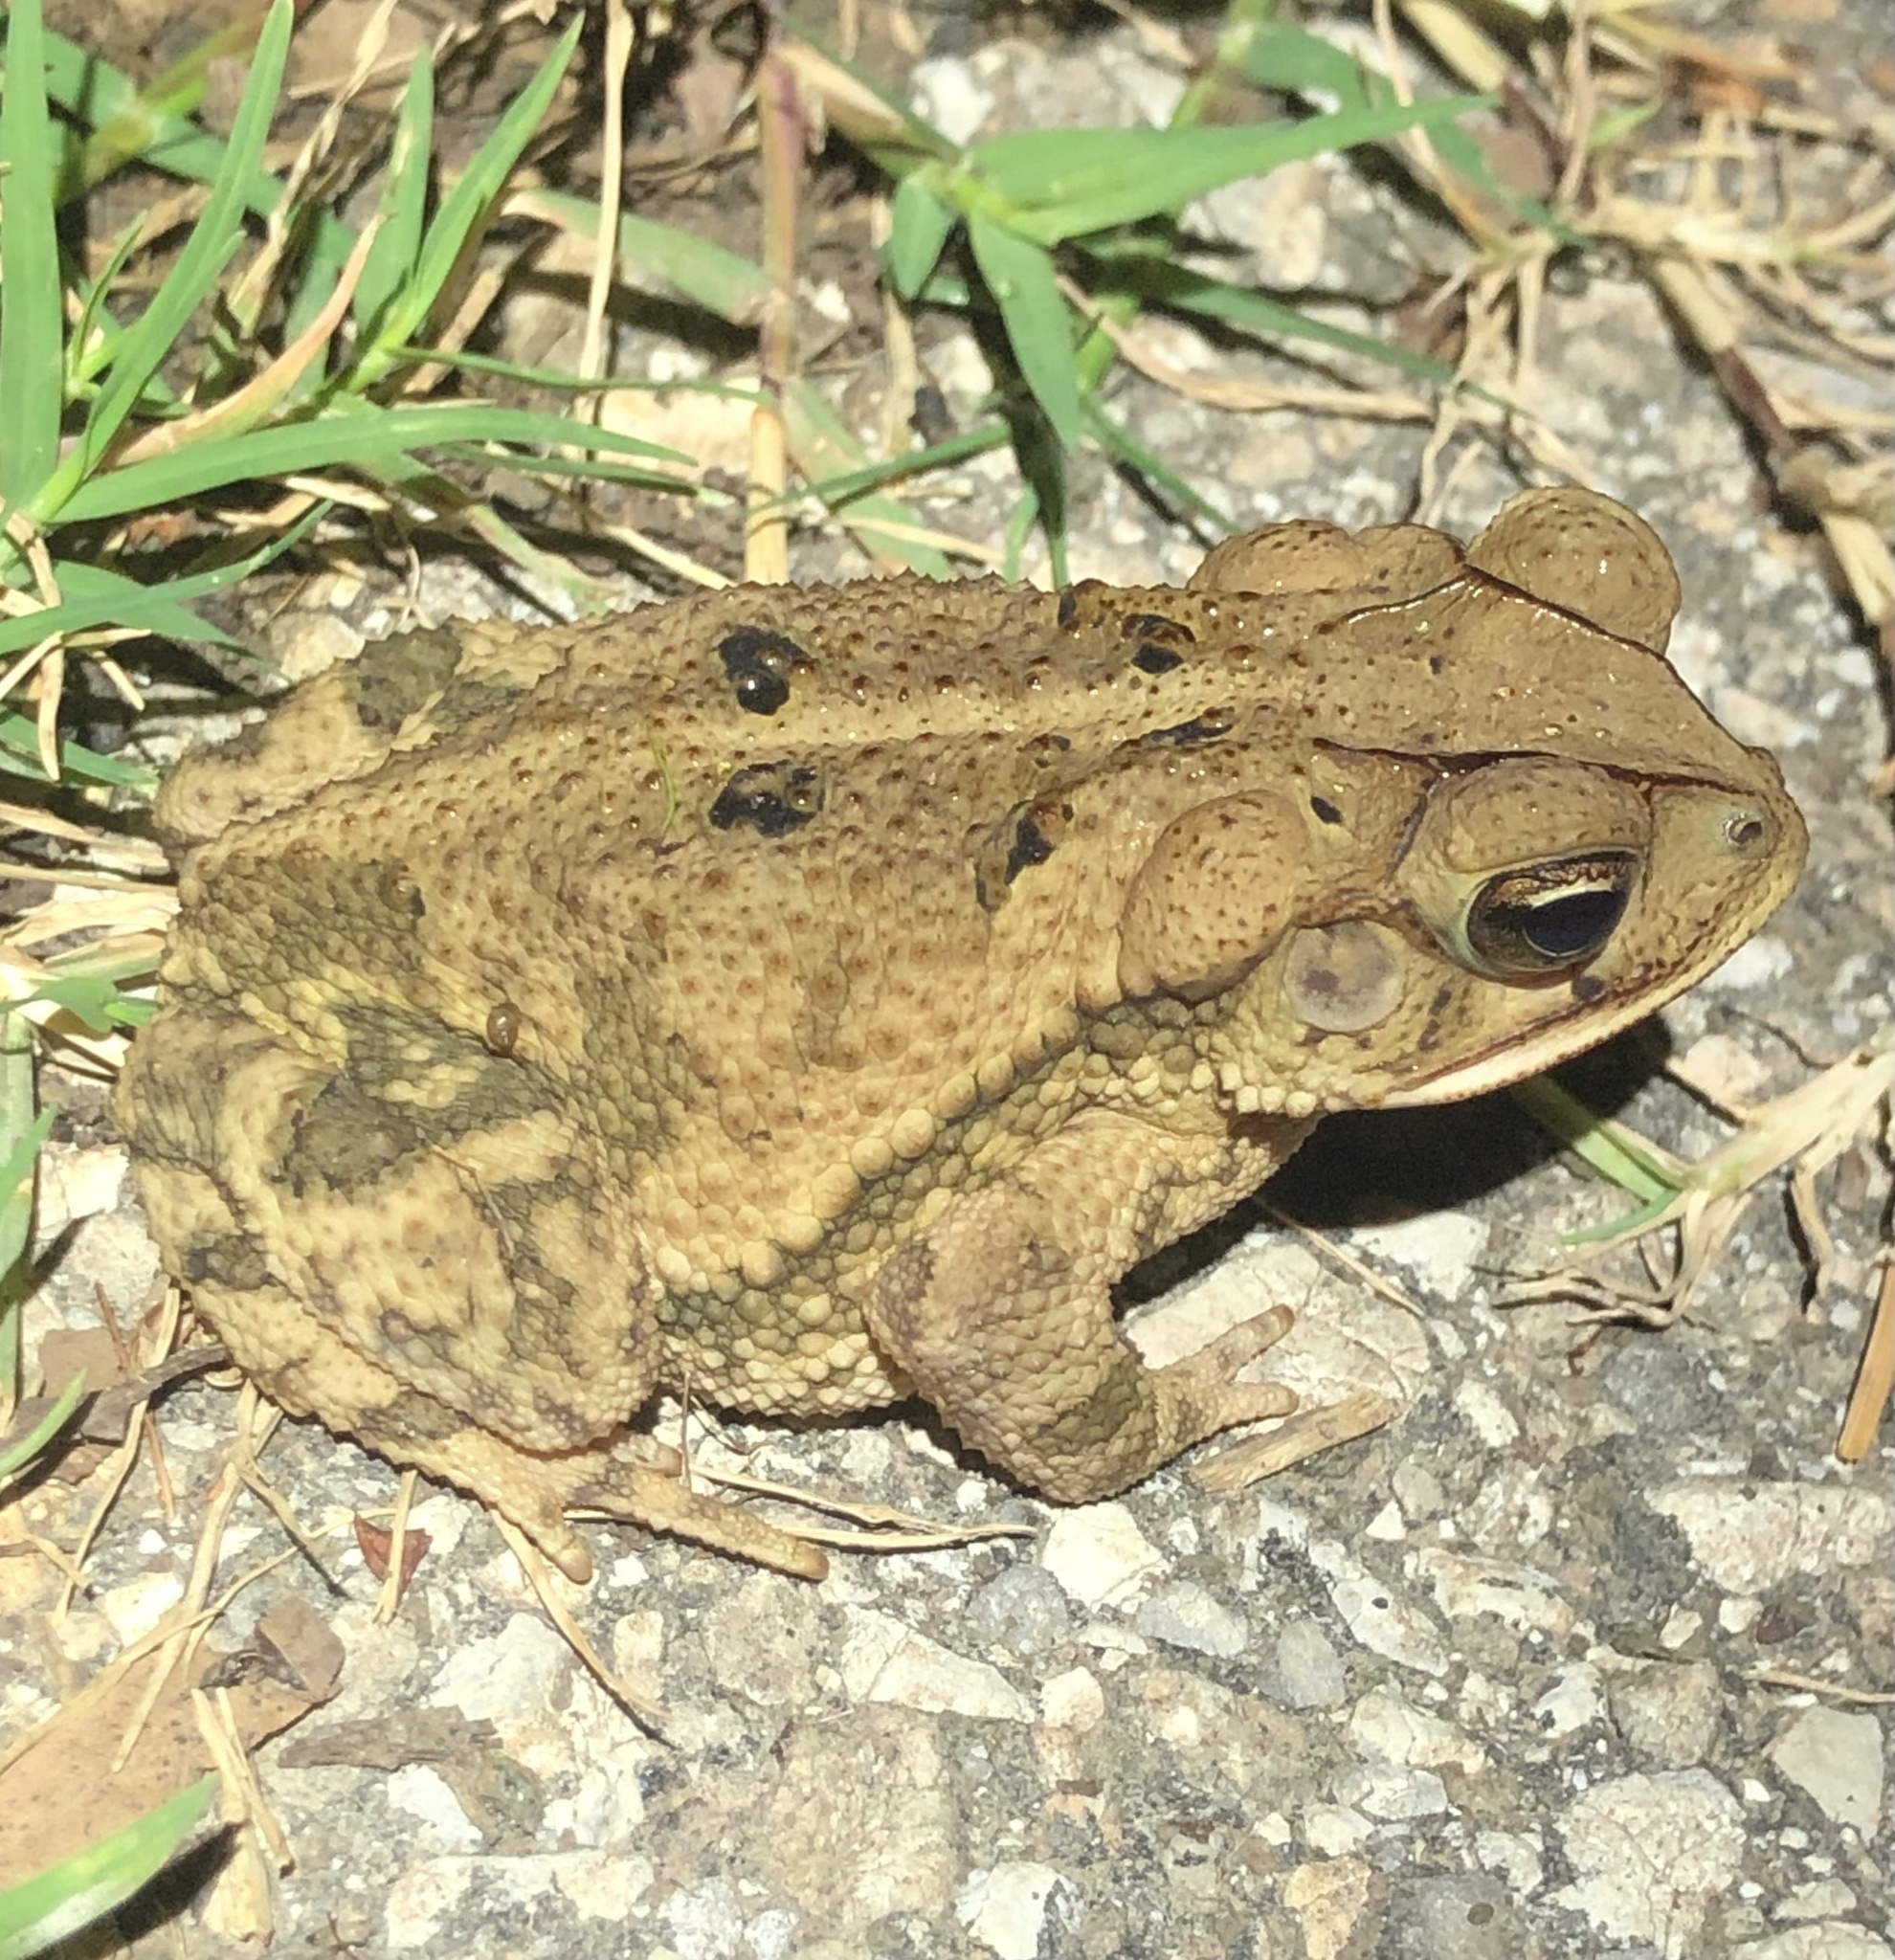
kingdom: Animalia
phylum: Chordata
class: Amphibia
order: Anura
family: Bufonidae
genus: Incilius
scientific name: Incilius nebulifer
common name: Gulf coast toad
